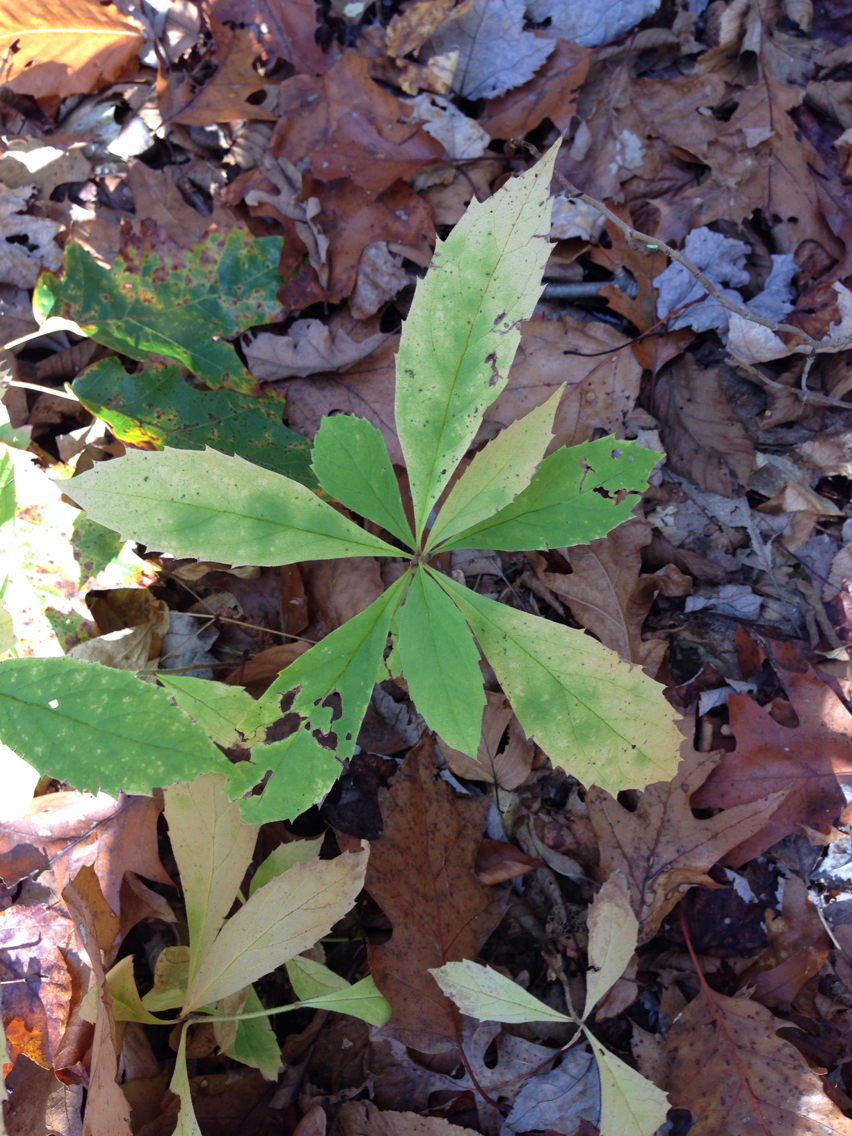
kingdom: Plantae
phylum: Tracheophyta
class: Magnoliopsida
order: Asterales
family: Asteraceae
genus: Oclemena
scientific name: Oclemena acuminata
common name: Mountain aster
